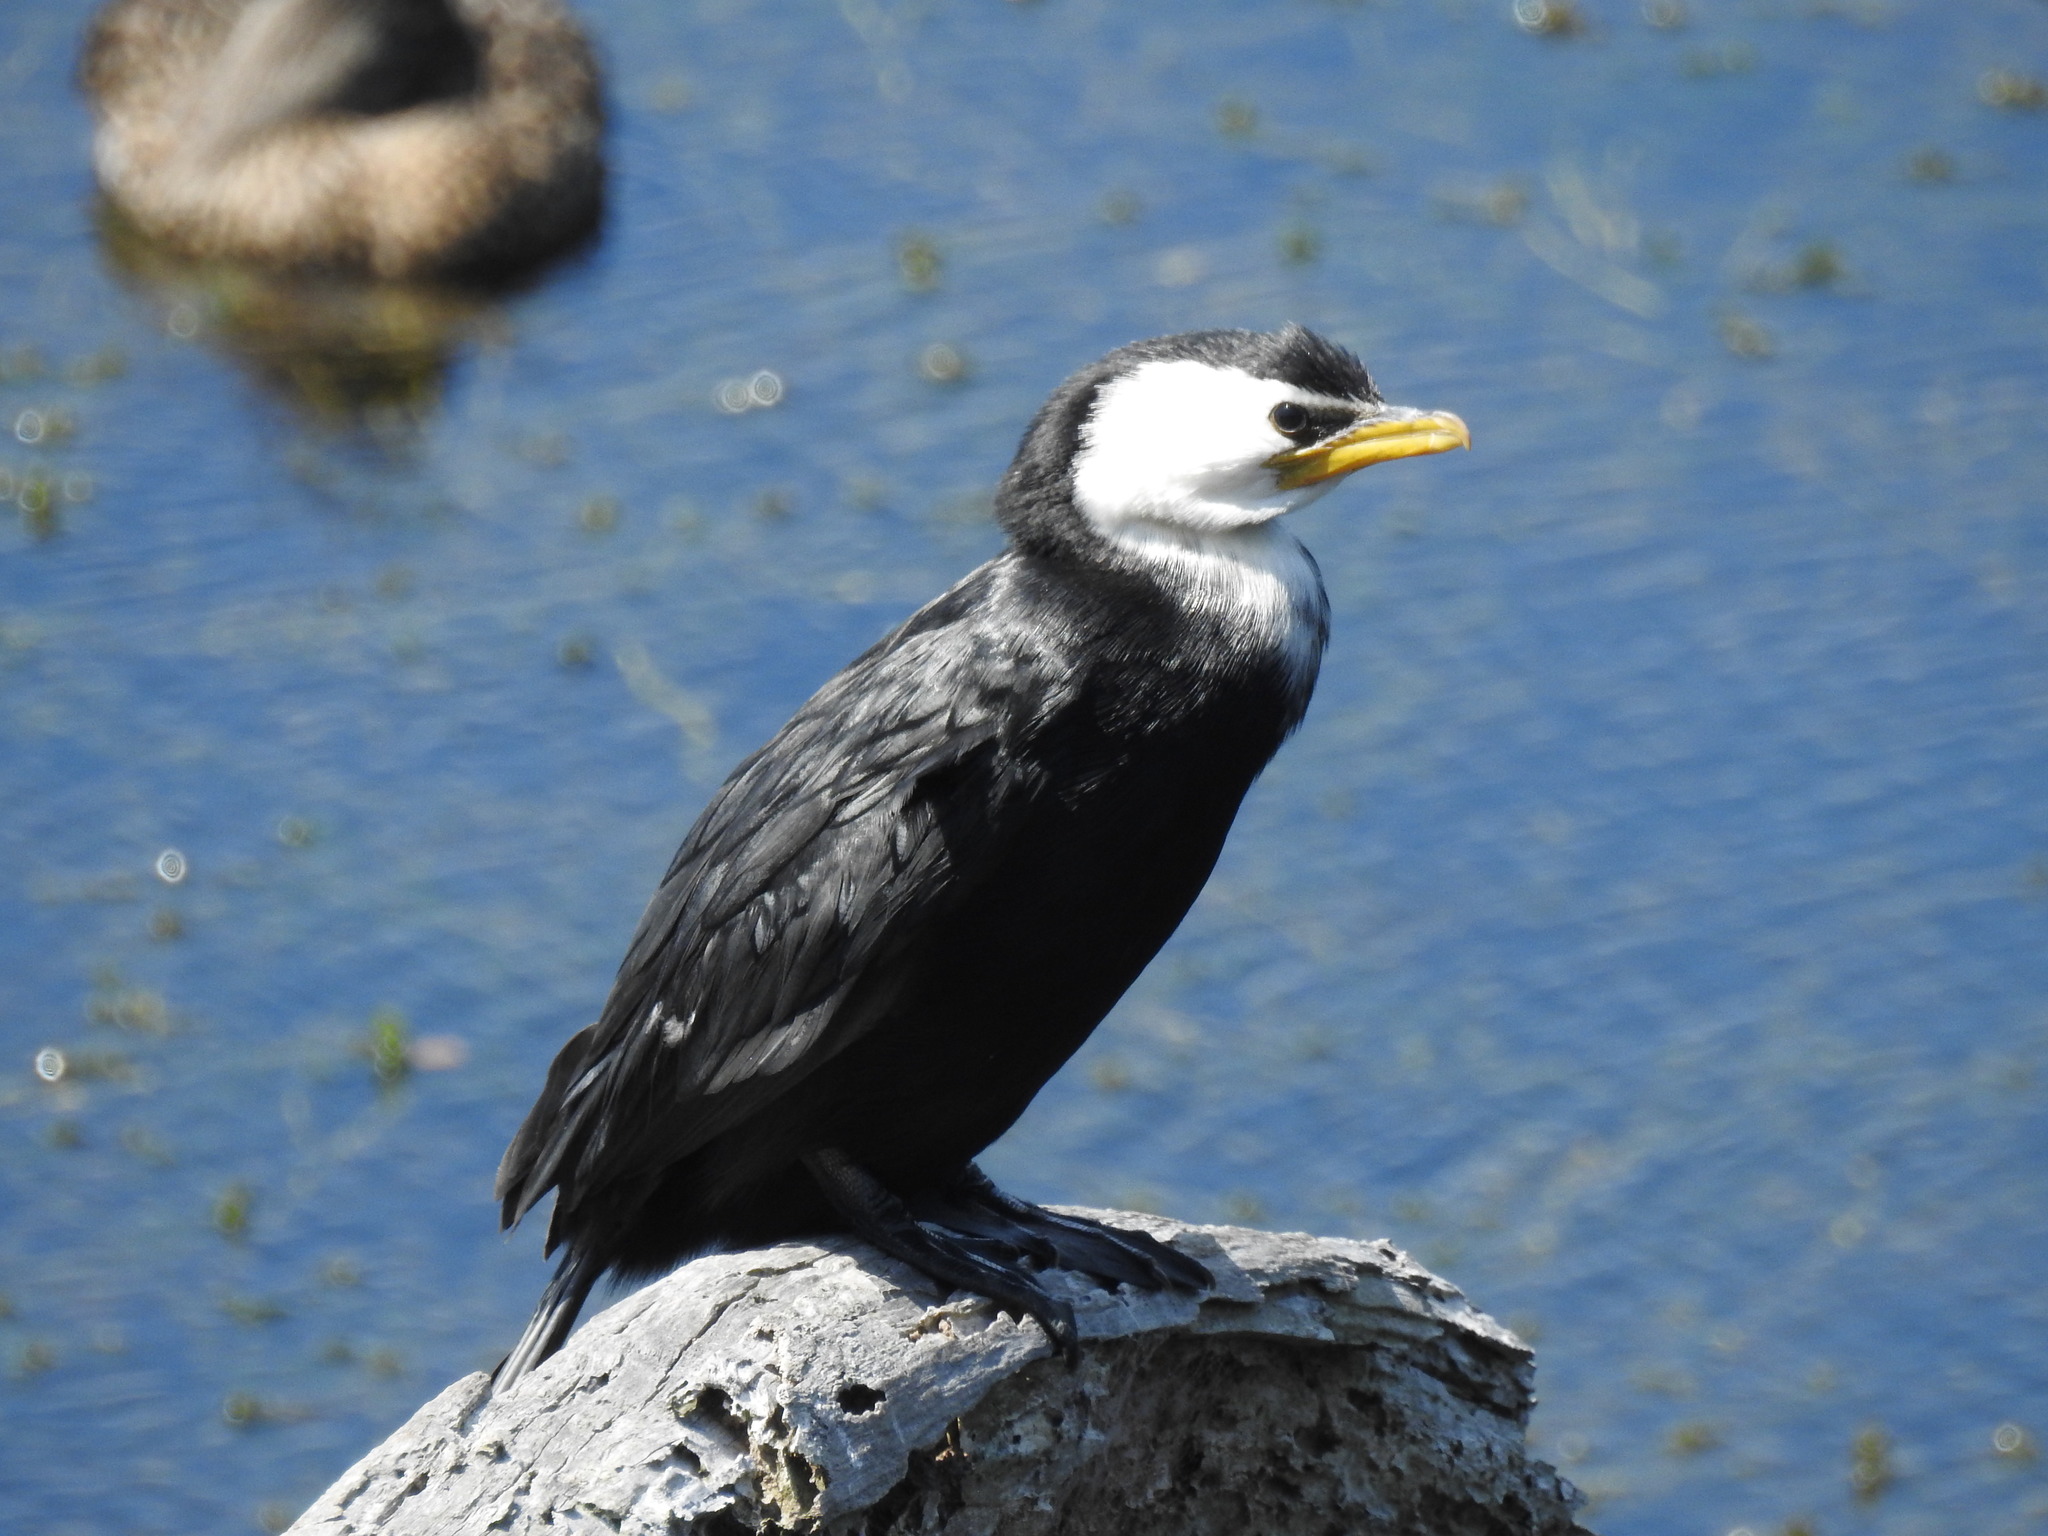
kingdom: Animalia
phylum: Chordata
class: Aves
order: Suliformes
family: Phalacrocoracidae
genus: Microcarbo
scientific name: Microcarbo melanoleucos
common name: Little pied cormorant
